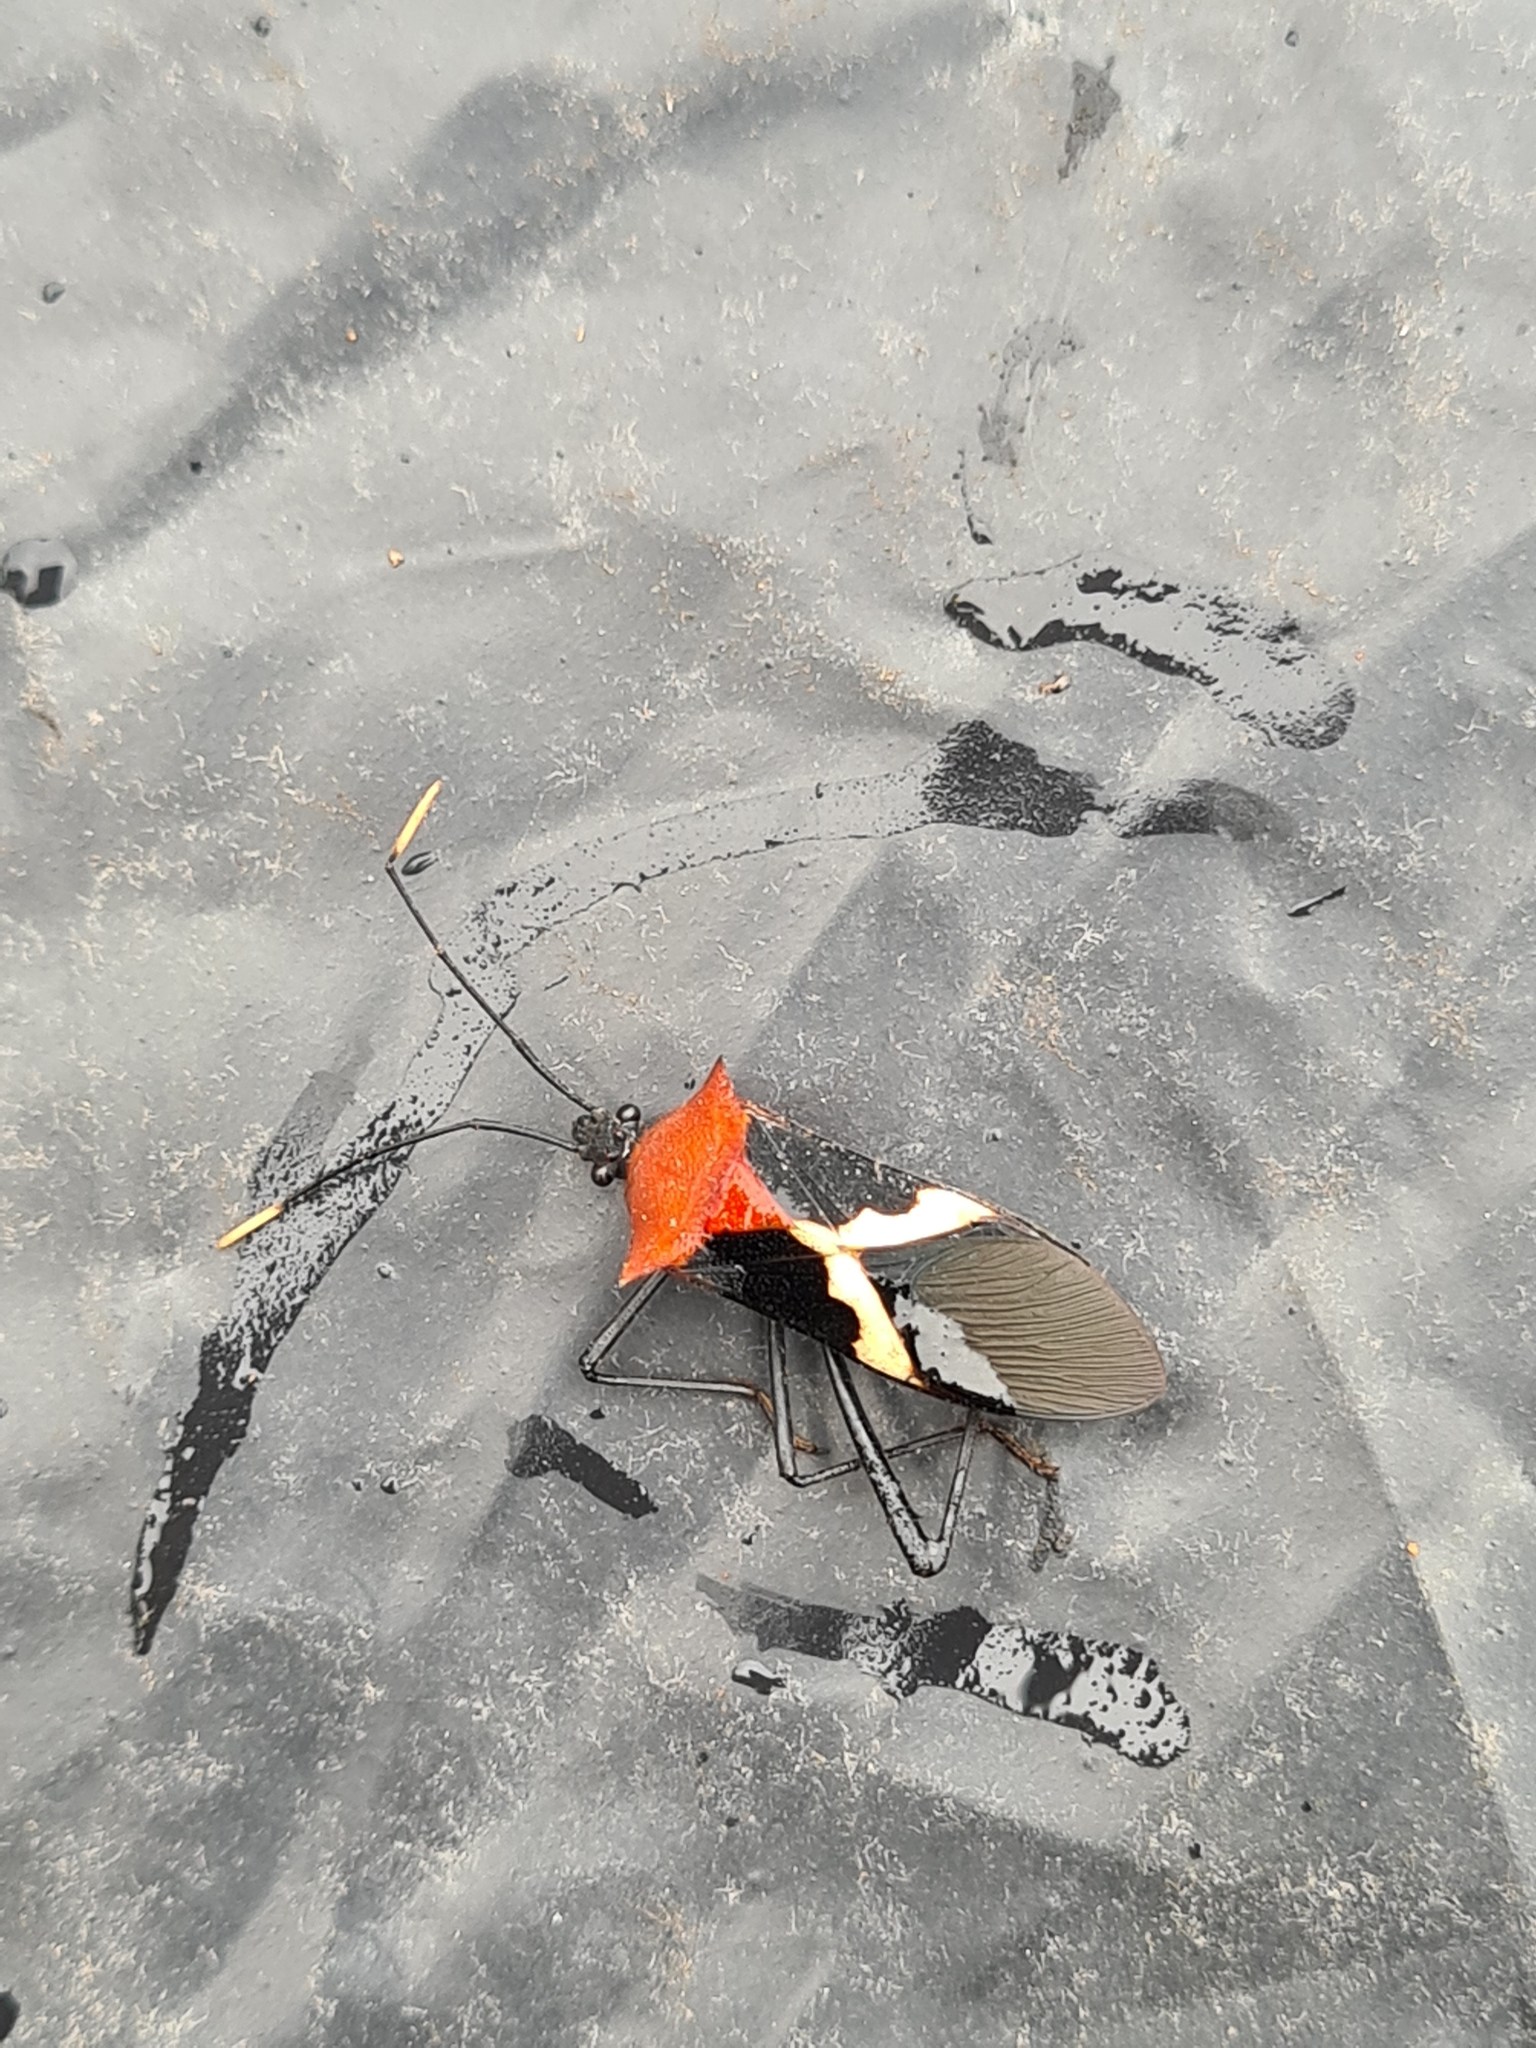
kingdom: Animalia
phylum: Arthropoda
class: Insecta
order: Hemiptera
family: Coreidae
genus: Leptoscelis
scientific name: Leptoscelis militaris
